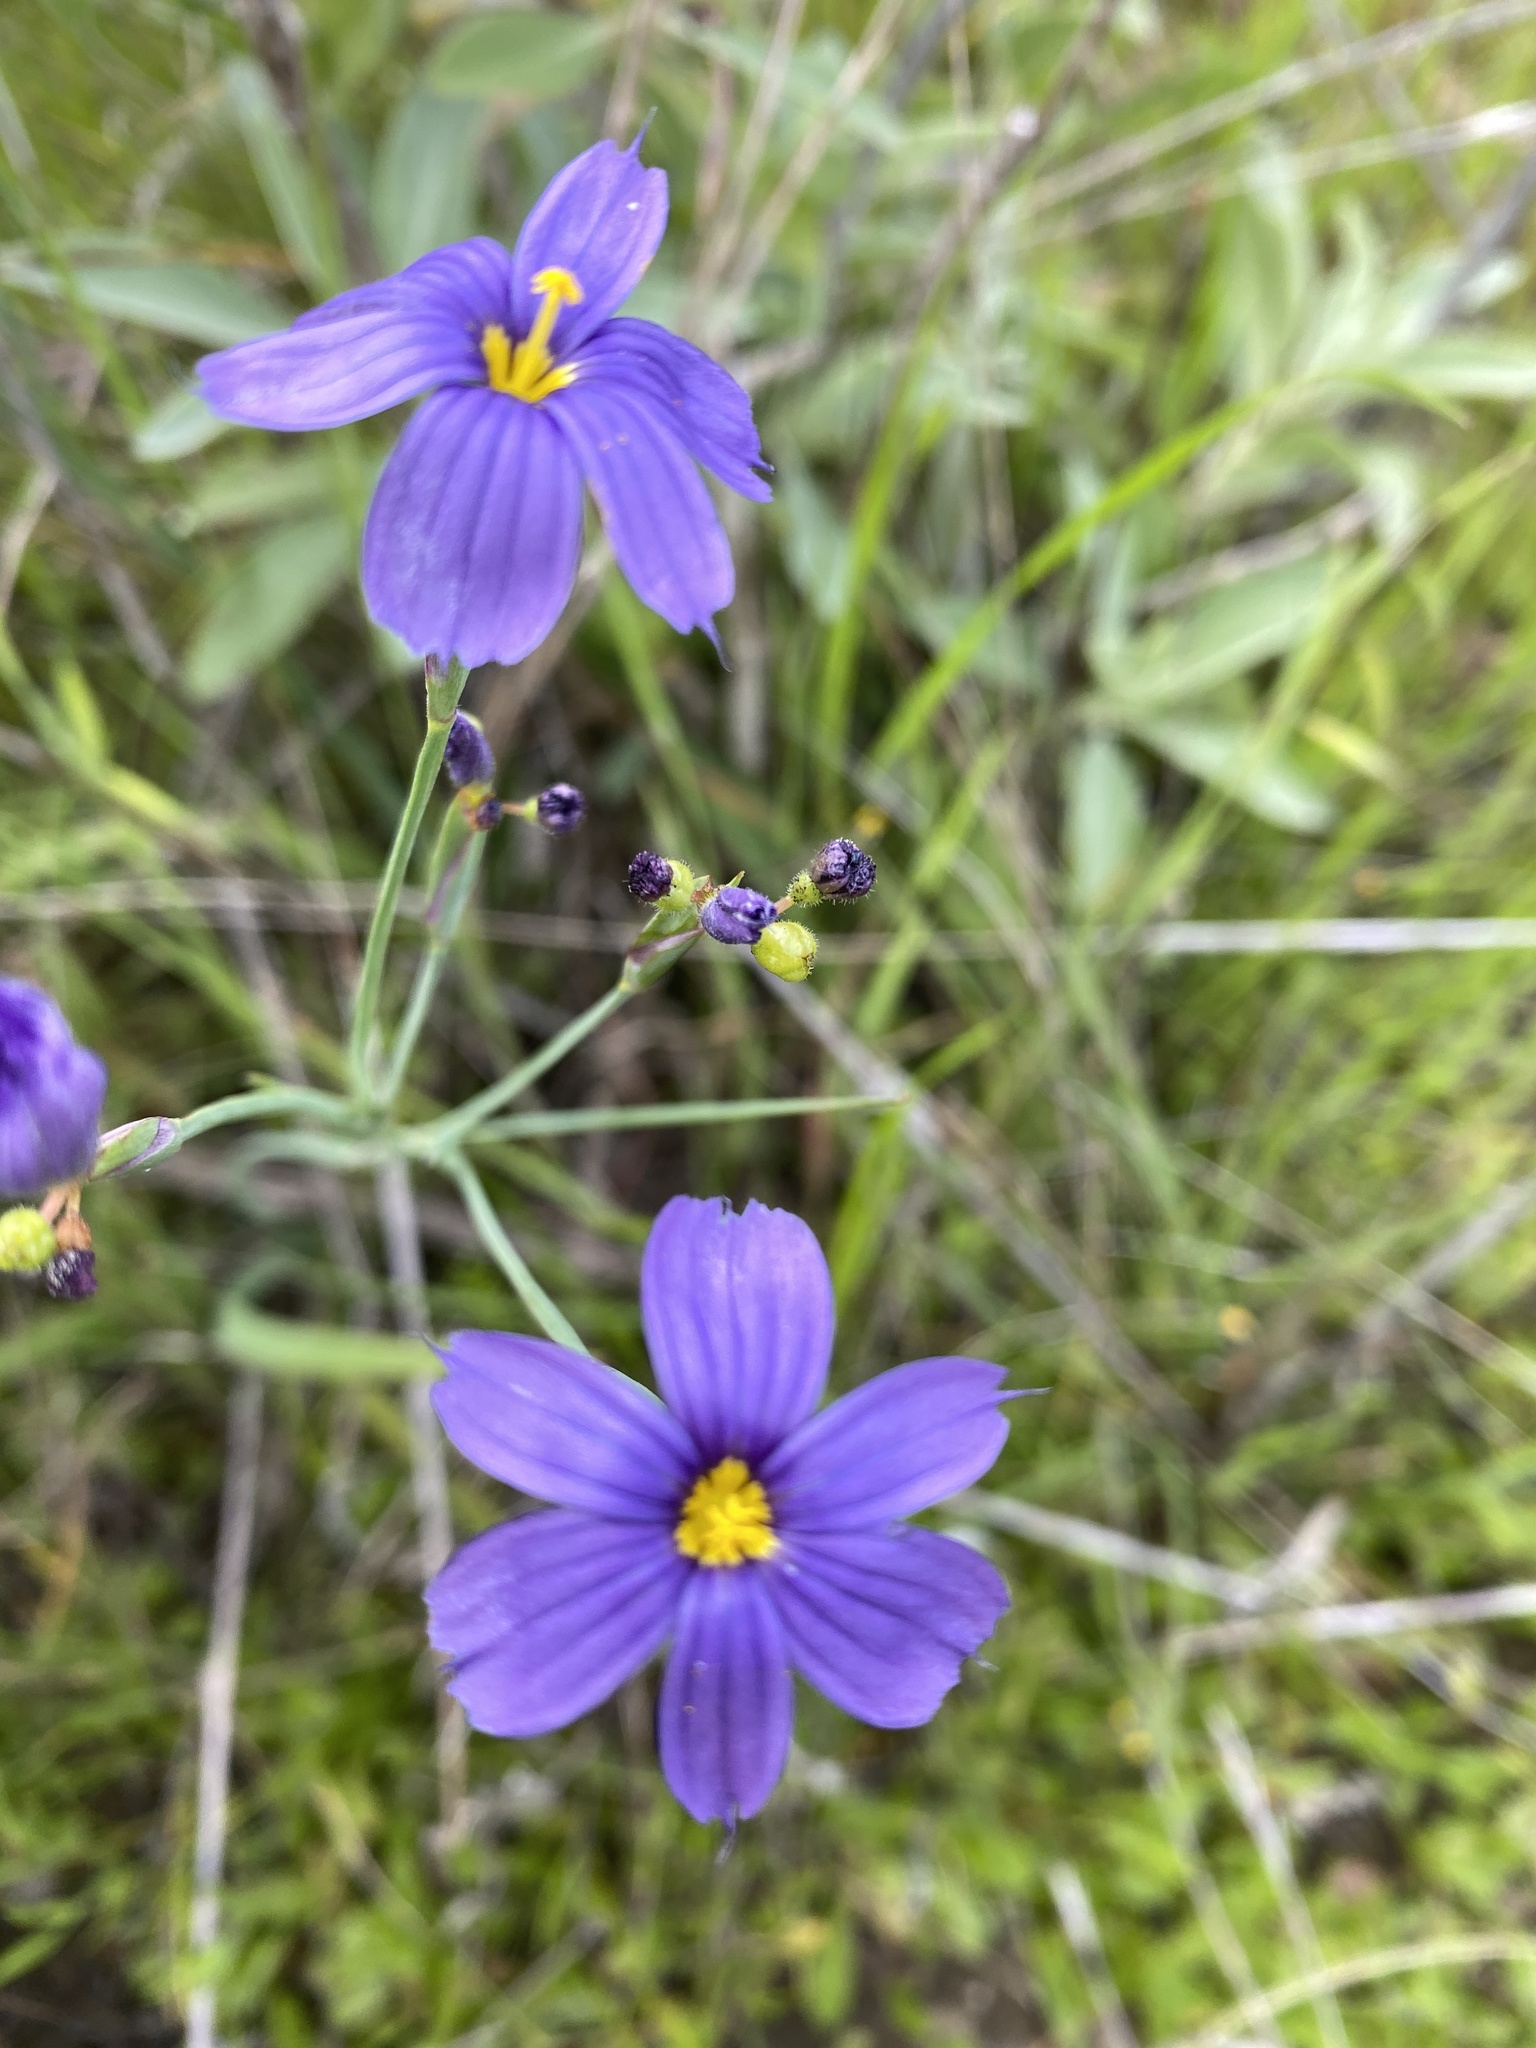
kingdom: Plantae
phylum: Tracheophyta
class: Liliopsida
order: Asparagales
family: Iridaceae
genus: Sisyrinchium
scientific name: Sisyrinchium bellum
